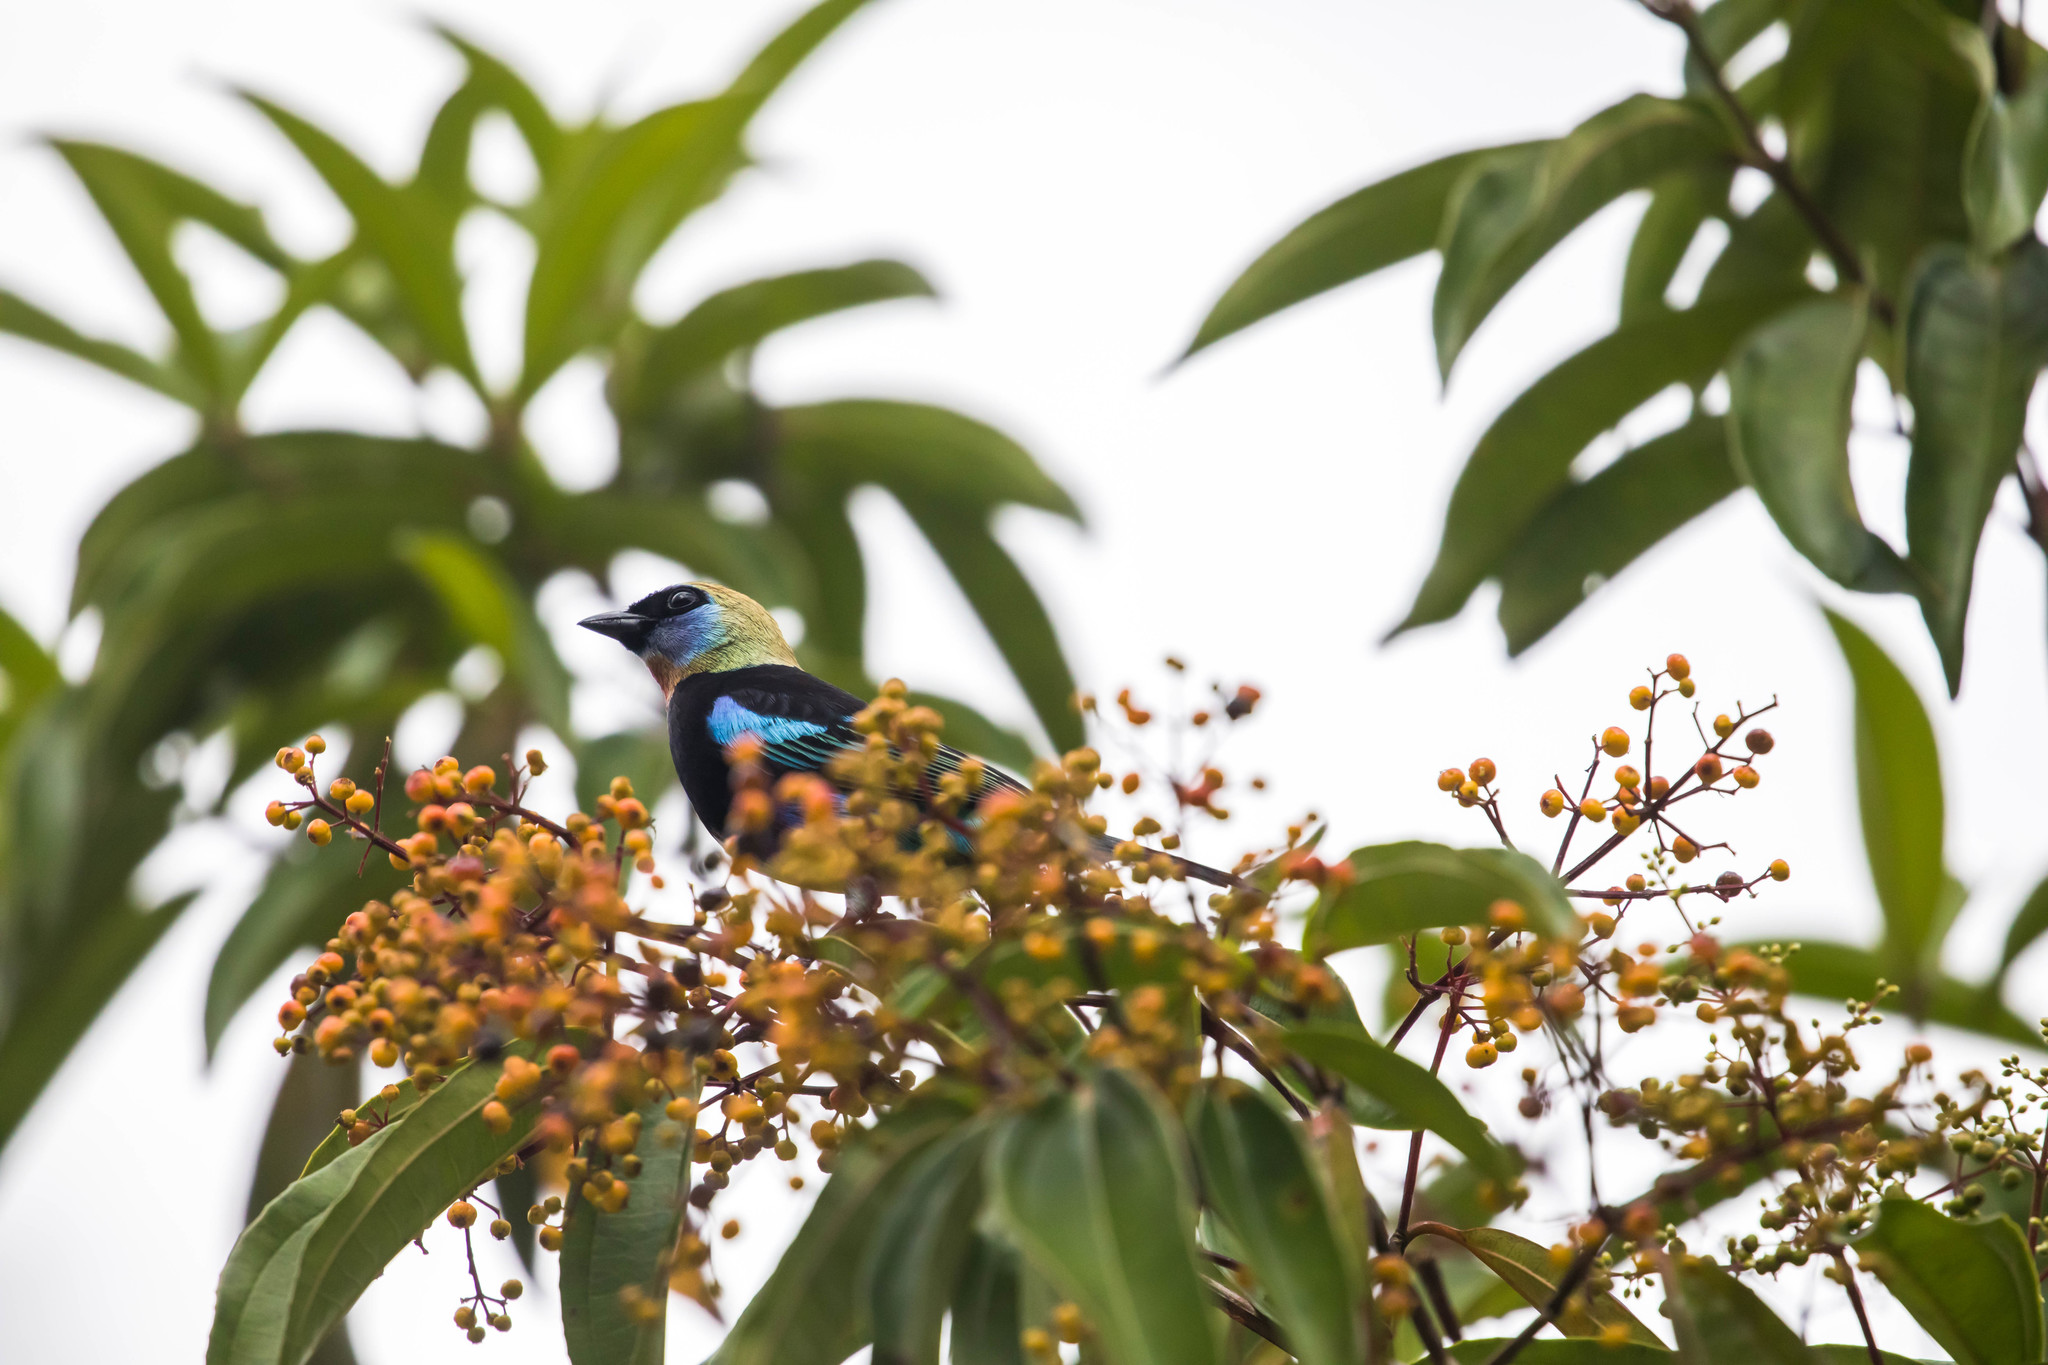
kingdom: Animalia
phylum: Chordata
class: Aves
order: Passeriformes
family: Thraupidae
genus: Stilpnia
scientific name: Stilpnia larvata
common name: Golden-hooded tanager
